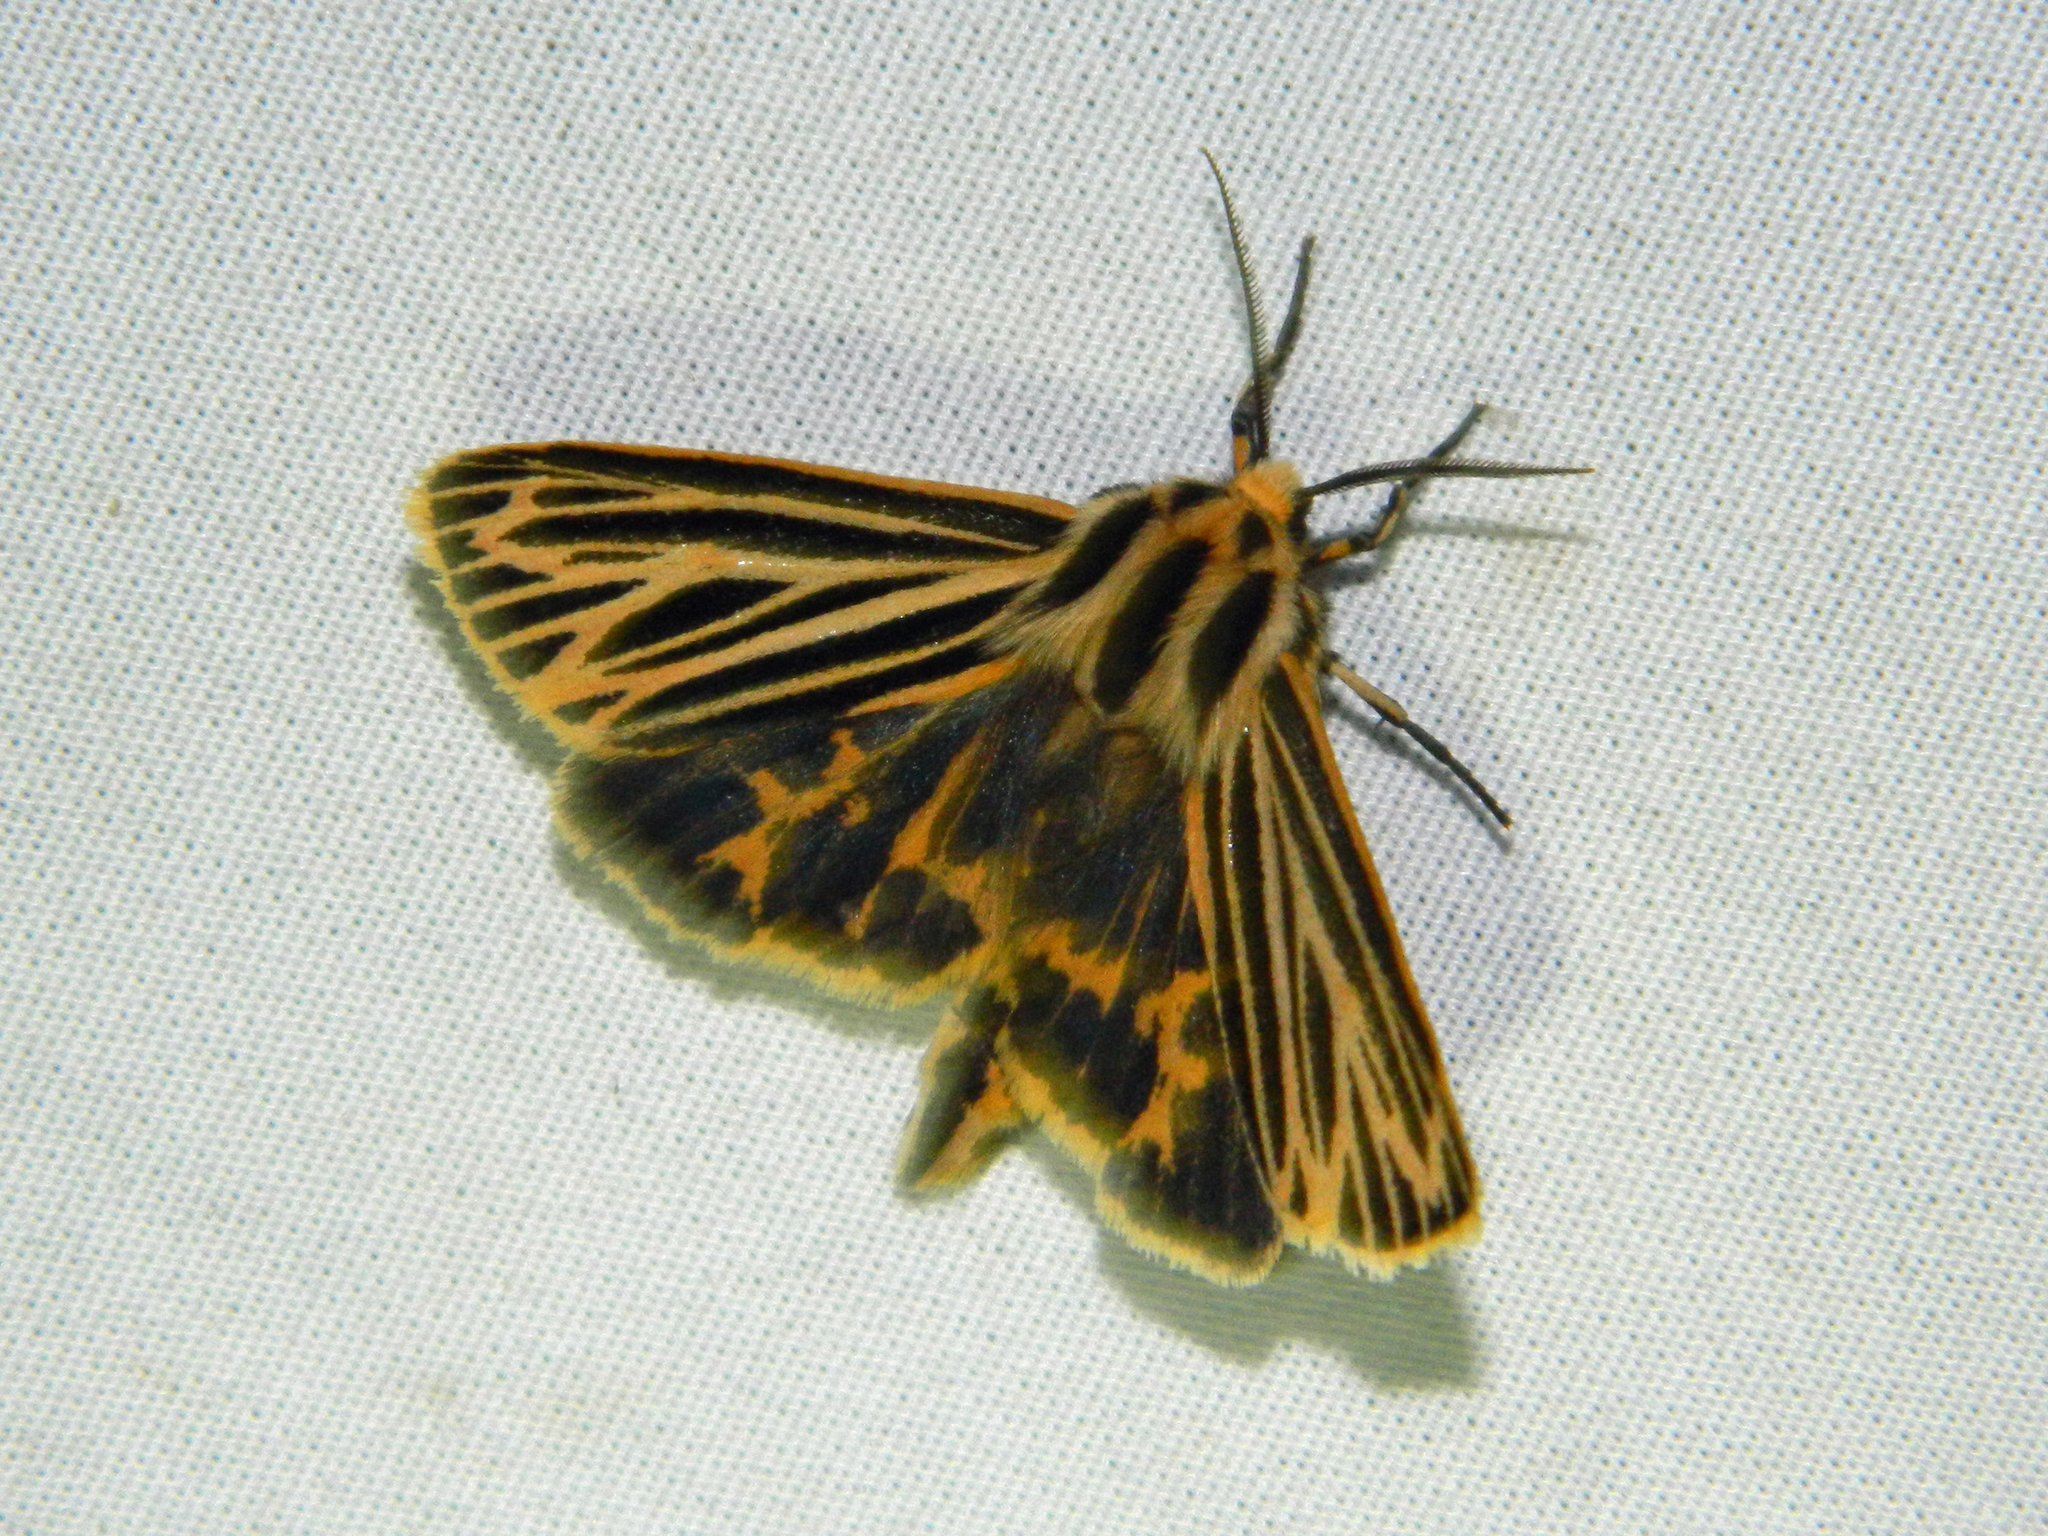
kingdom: Animalia
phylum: Arthropoda
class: Insecta
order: Lepidoptera
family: Erebidae
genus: Grammia
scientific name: Grammia virguncula
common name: Little tiger moth
